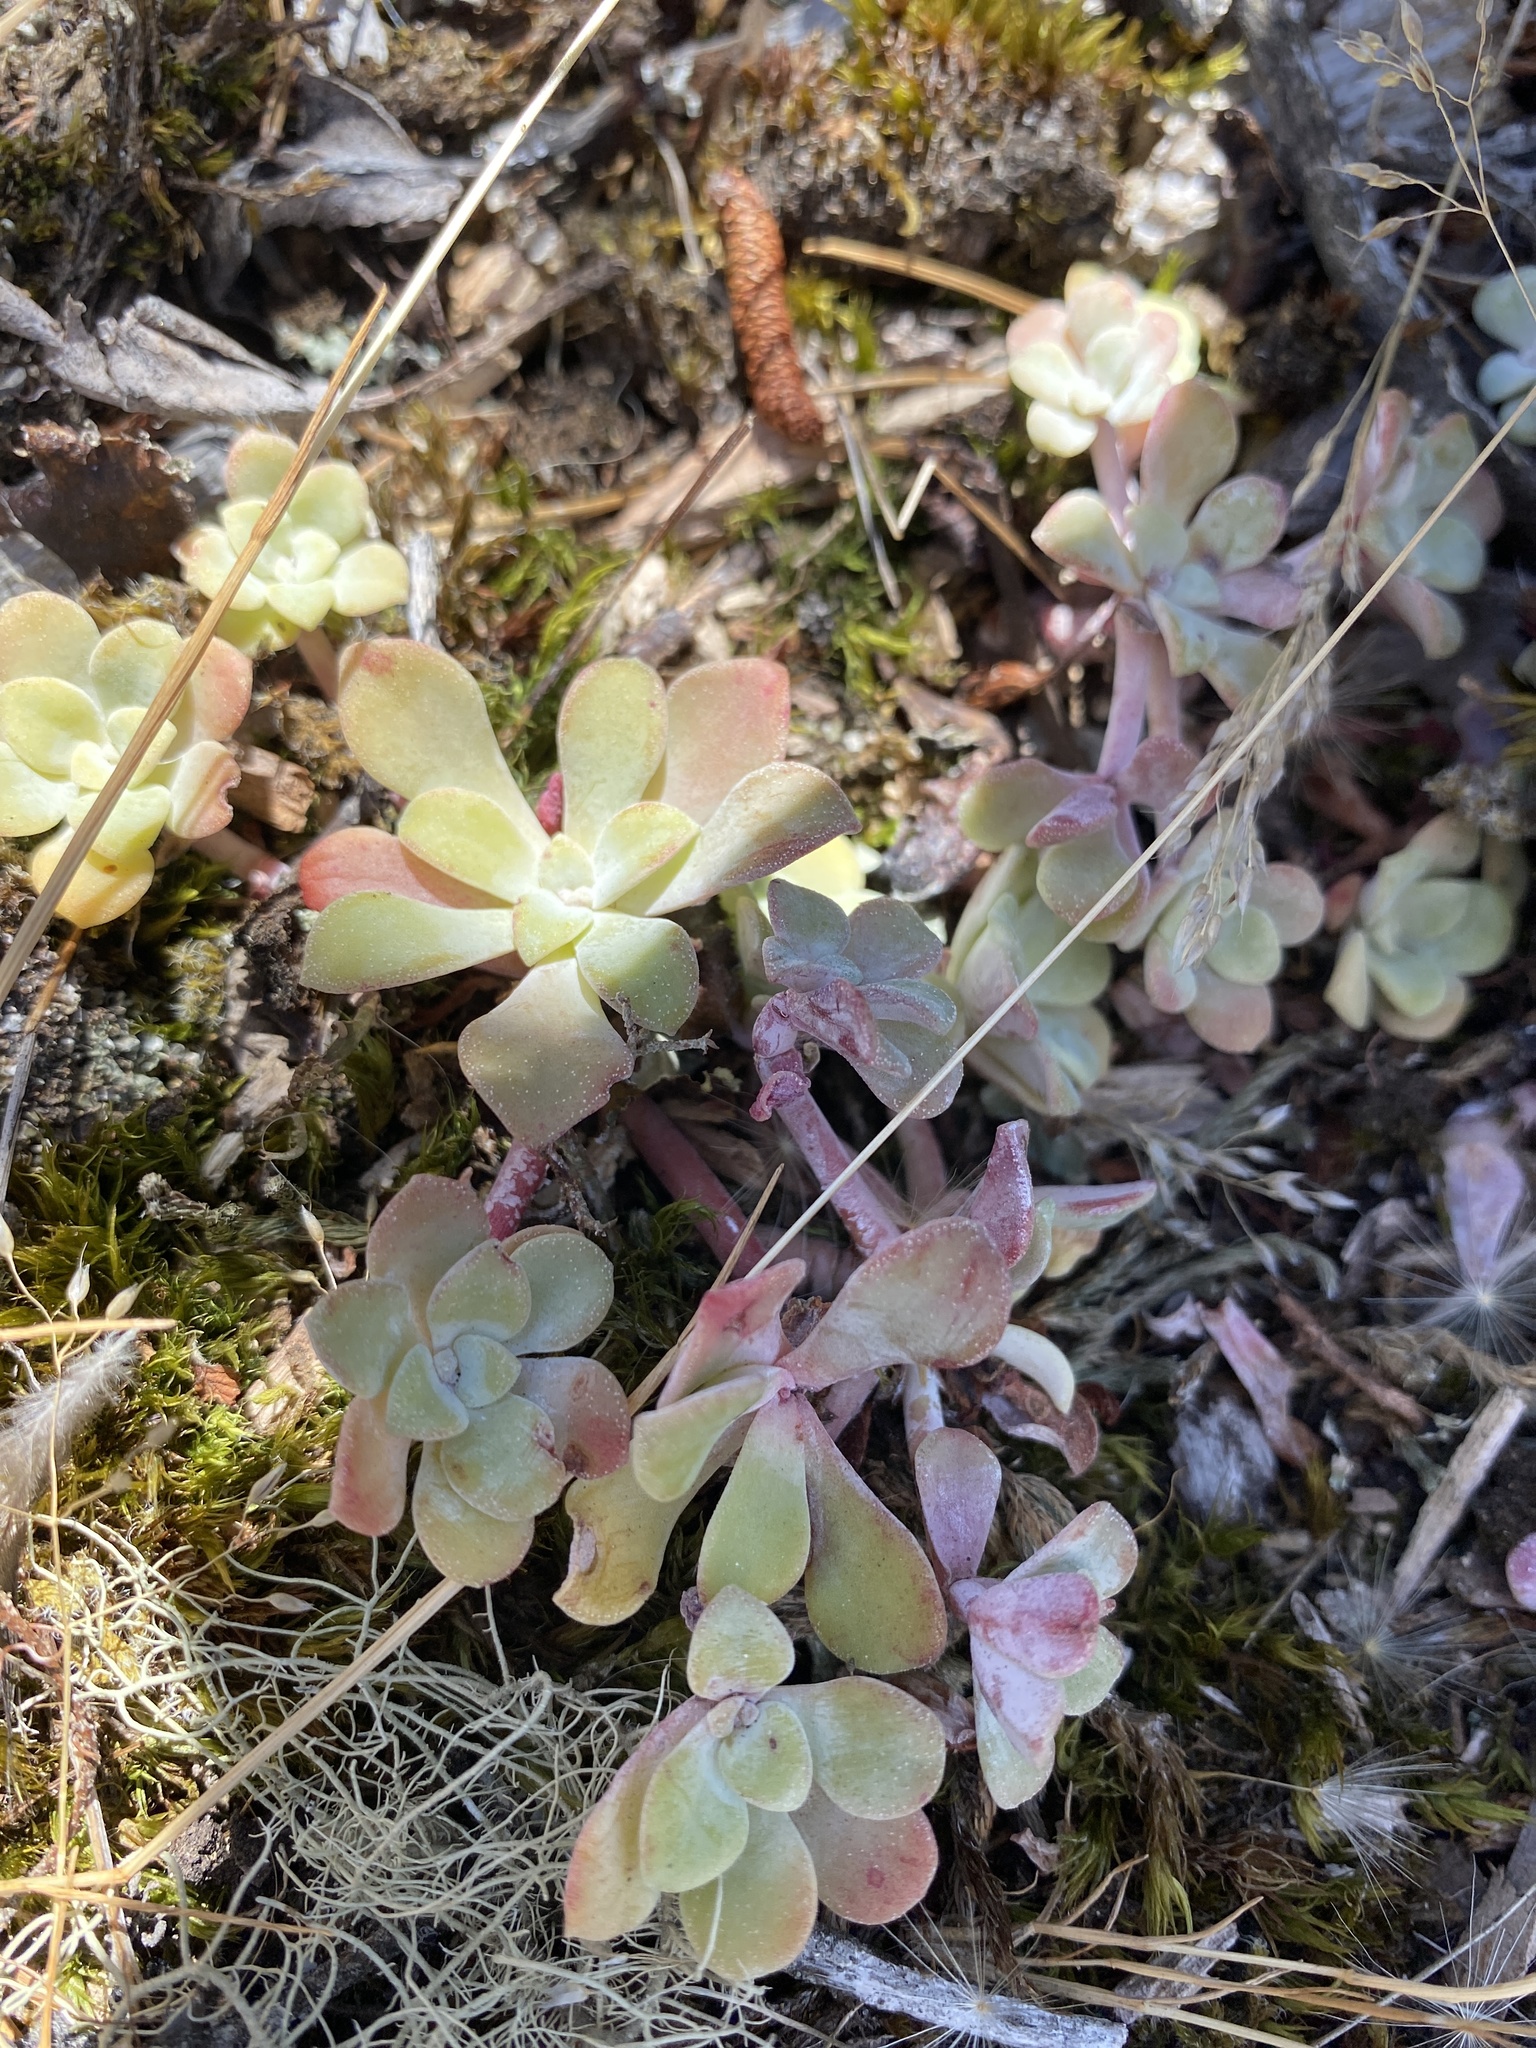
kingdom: Plantae
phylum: Tracheophyta
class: Magnoliopsida
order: Saxifragales
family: Crassulaceae
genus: Sedum
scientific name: Sedum spathulifolium
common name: Colorado stonecrop
